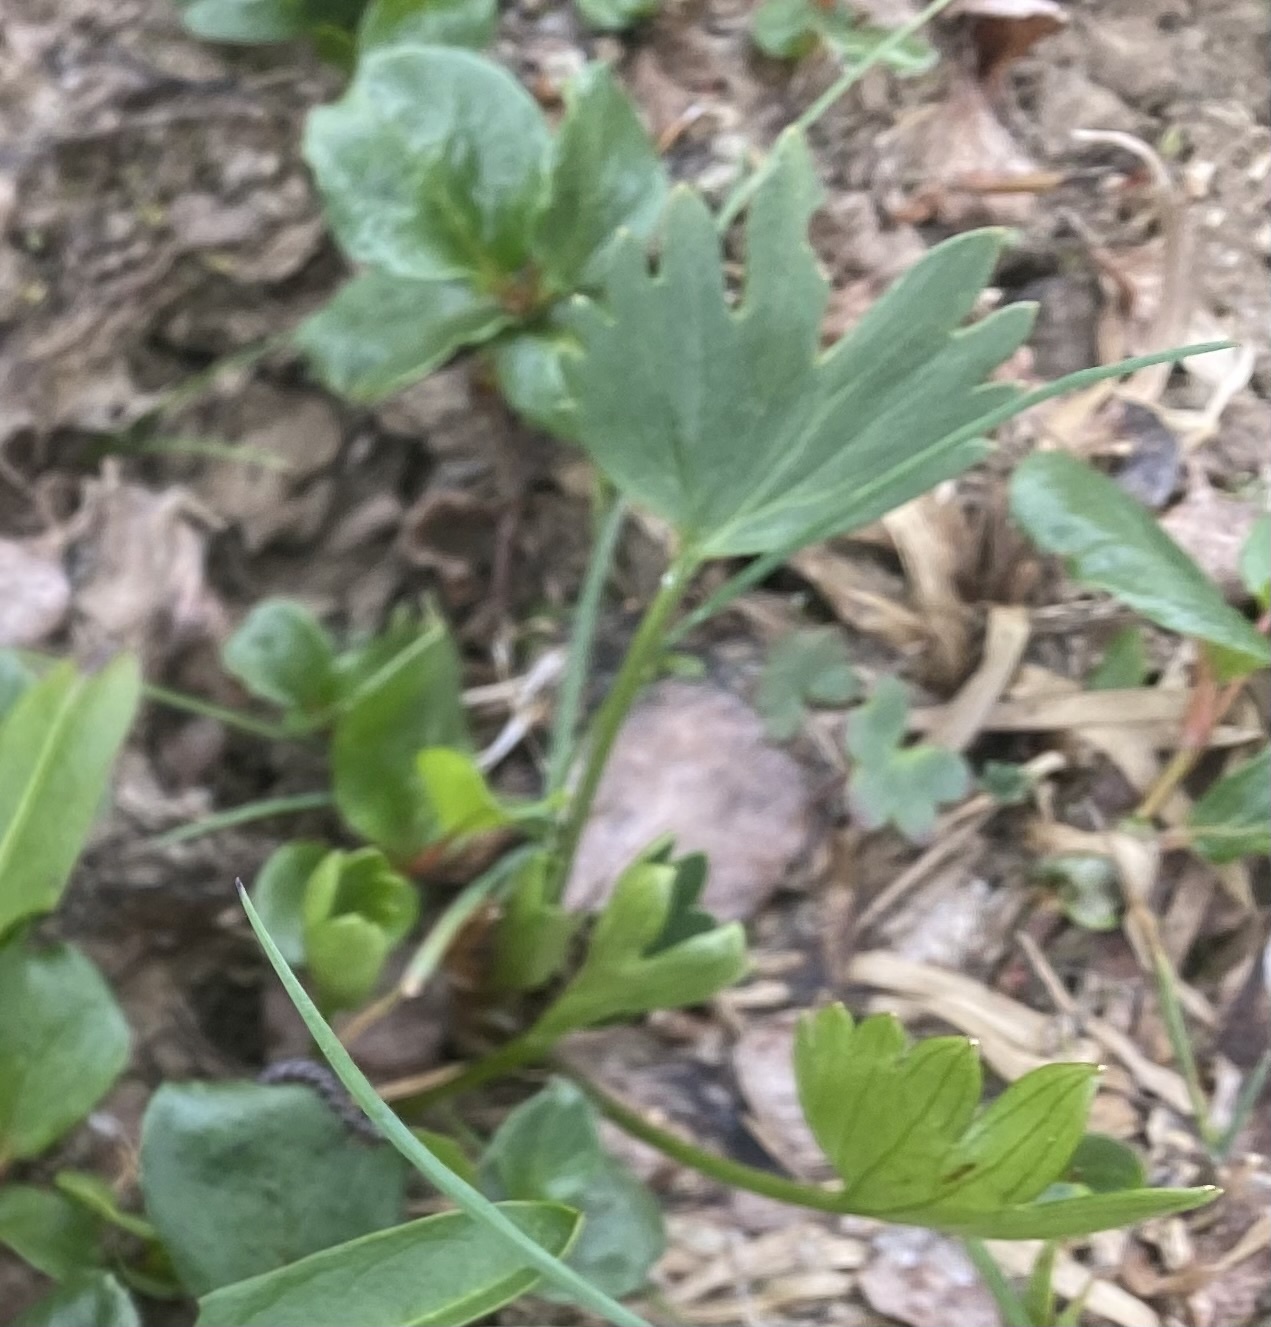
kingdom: Plantae
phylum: Tracheophyta
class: Magnoliopsida
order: Ranunculales
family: Ranunculaceae
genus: Ranunculus
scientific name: Ranunculus sulphureus
